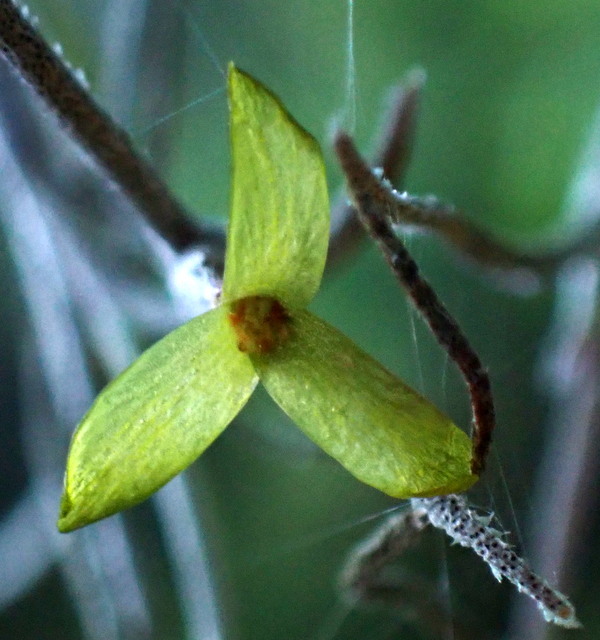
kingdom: Plantae
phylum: Tracheophyta
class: Liliopsida
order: Poales
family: Bromeliaceae
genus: Tillandsia
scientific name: Tillandsia usneoides
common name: Spanish moss
